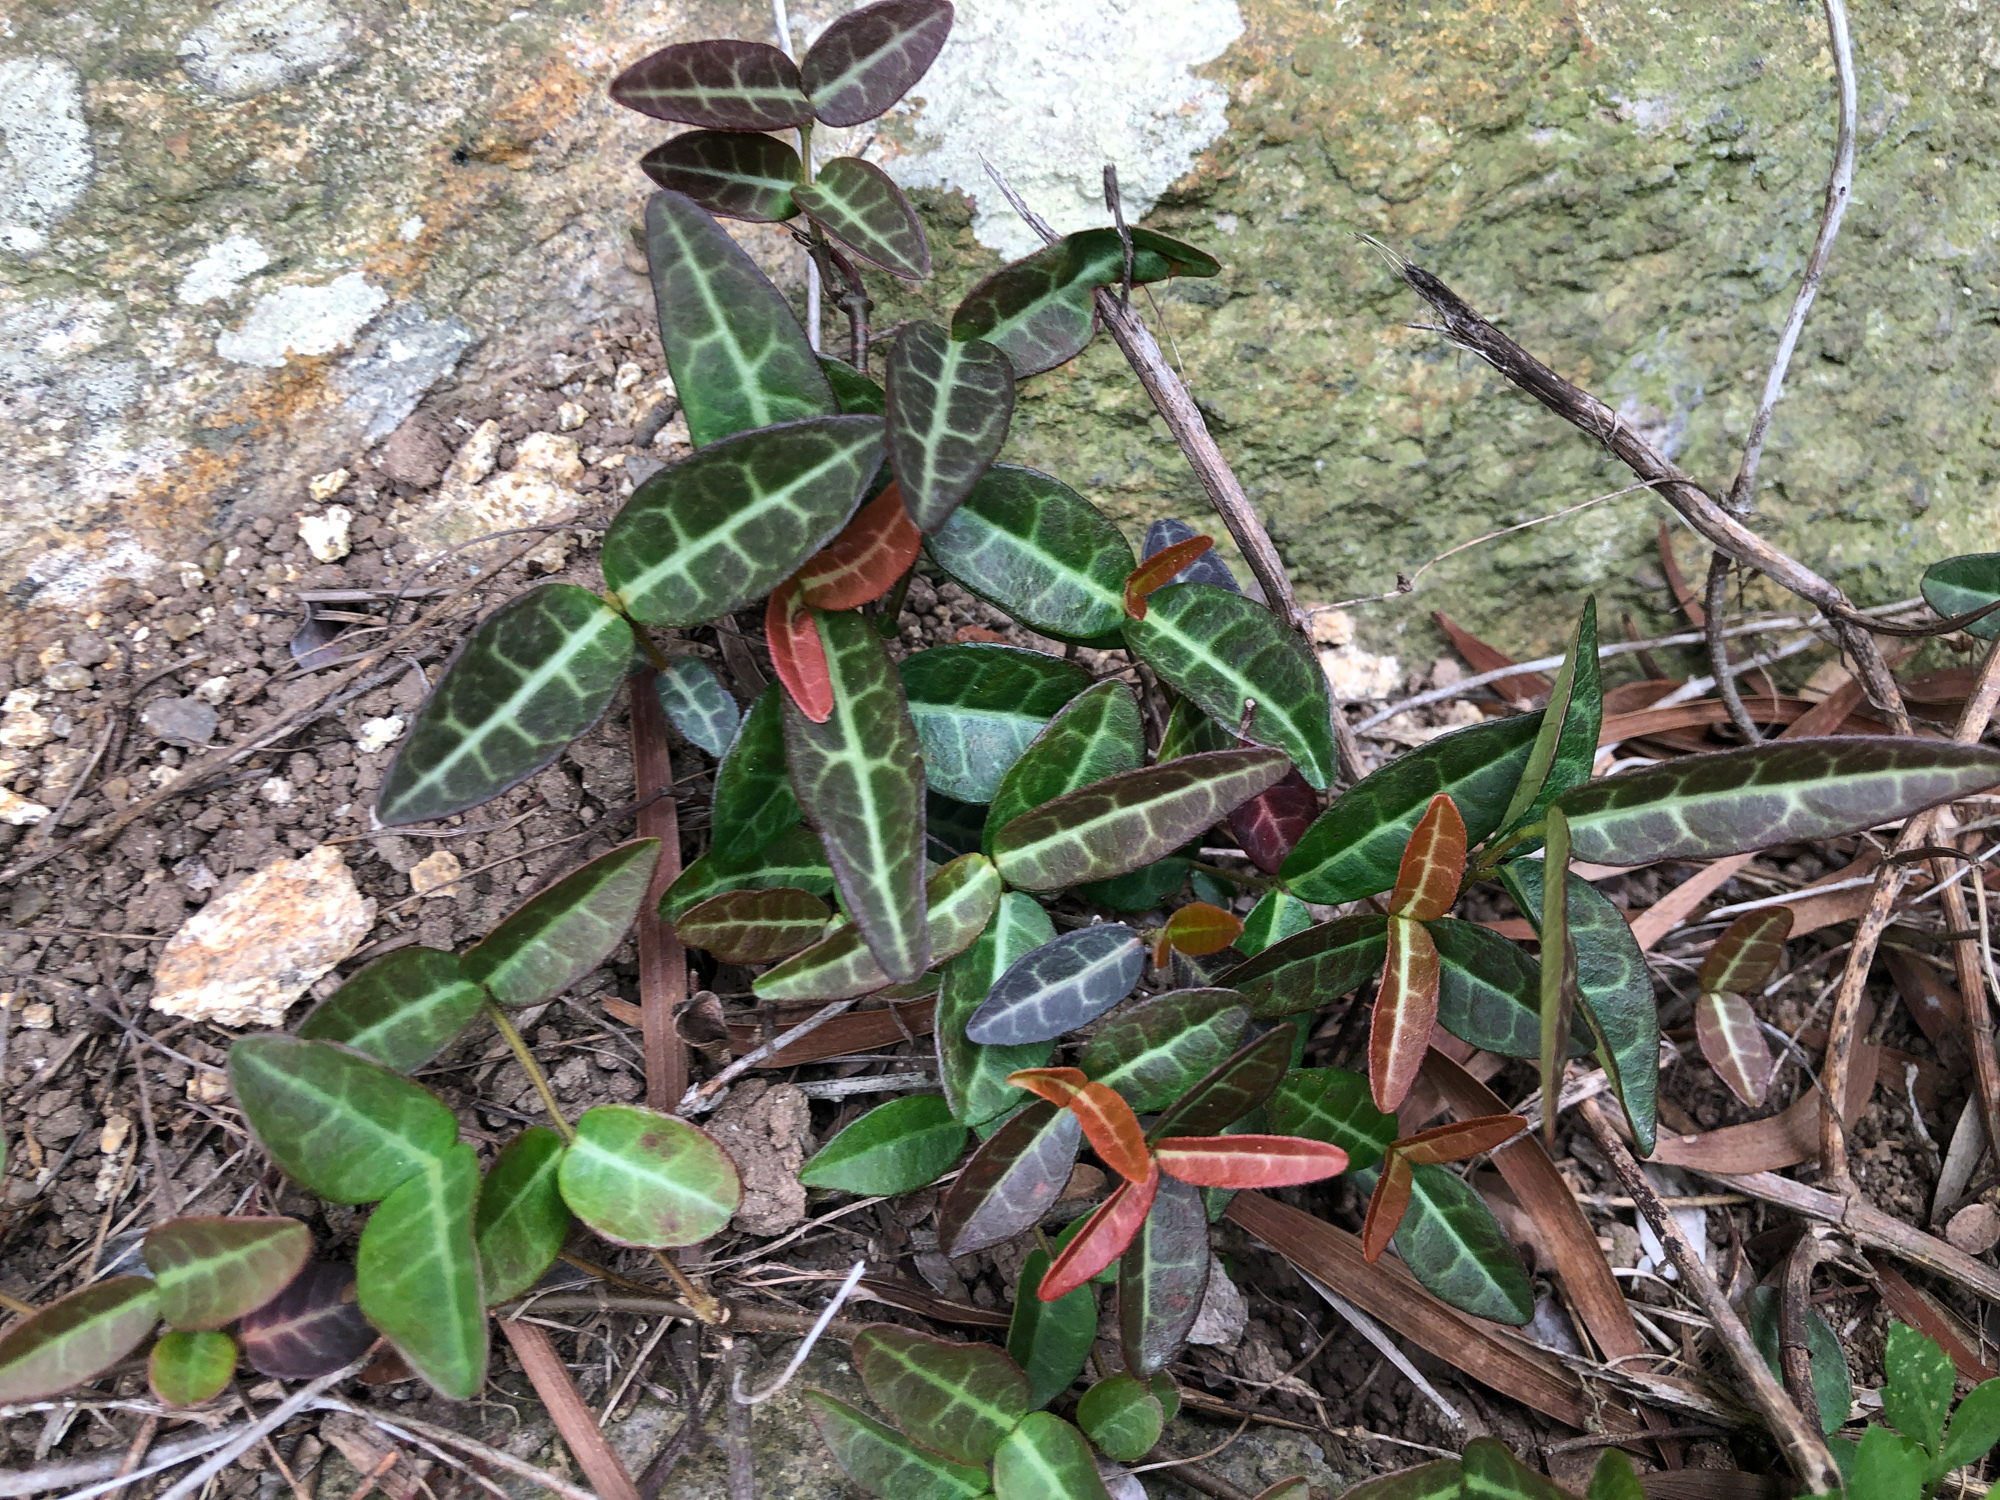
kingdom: Plantae
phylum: Tracheophyta
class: Magnoliopsida
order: Gentianales
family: Apocynaceae
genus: Trachelospermum
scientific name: Trachelospermum jasminoides
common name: Confederate jasmine
